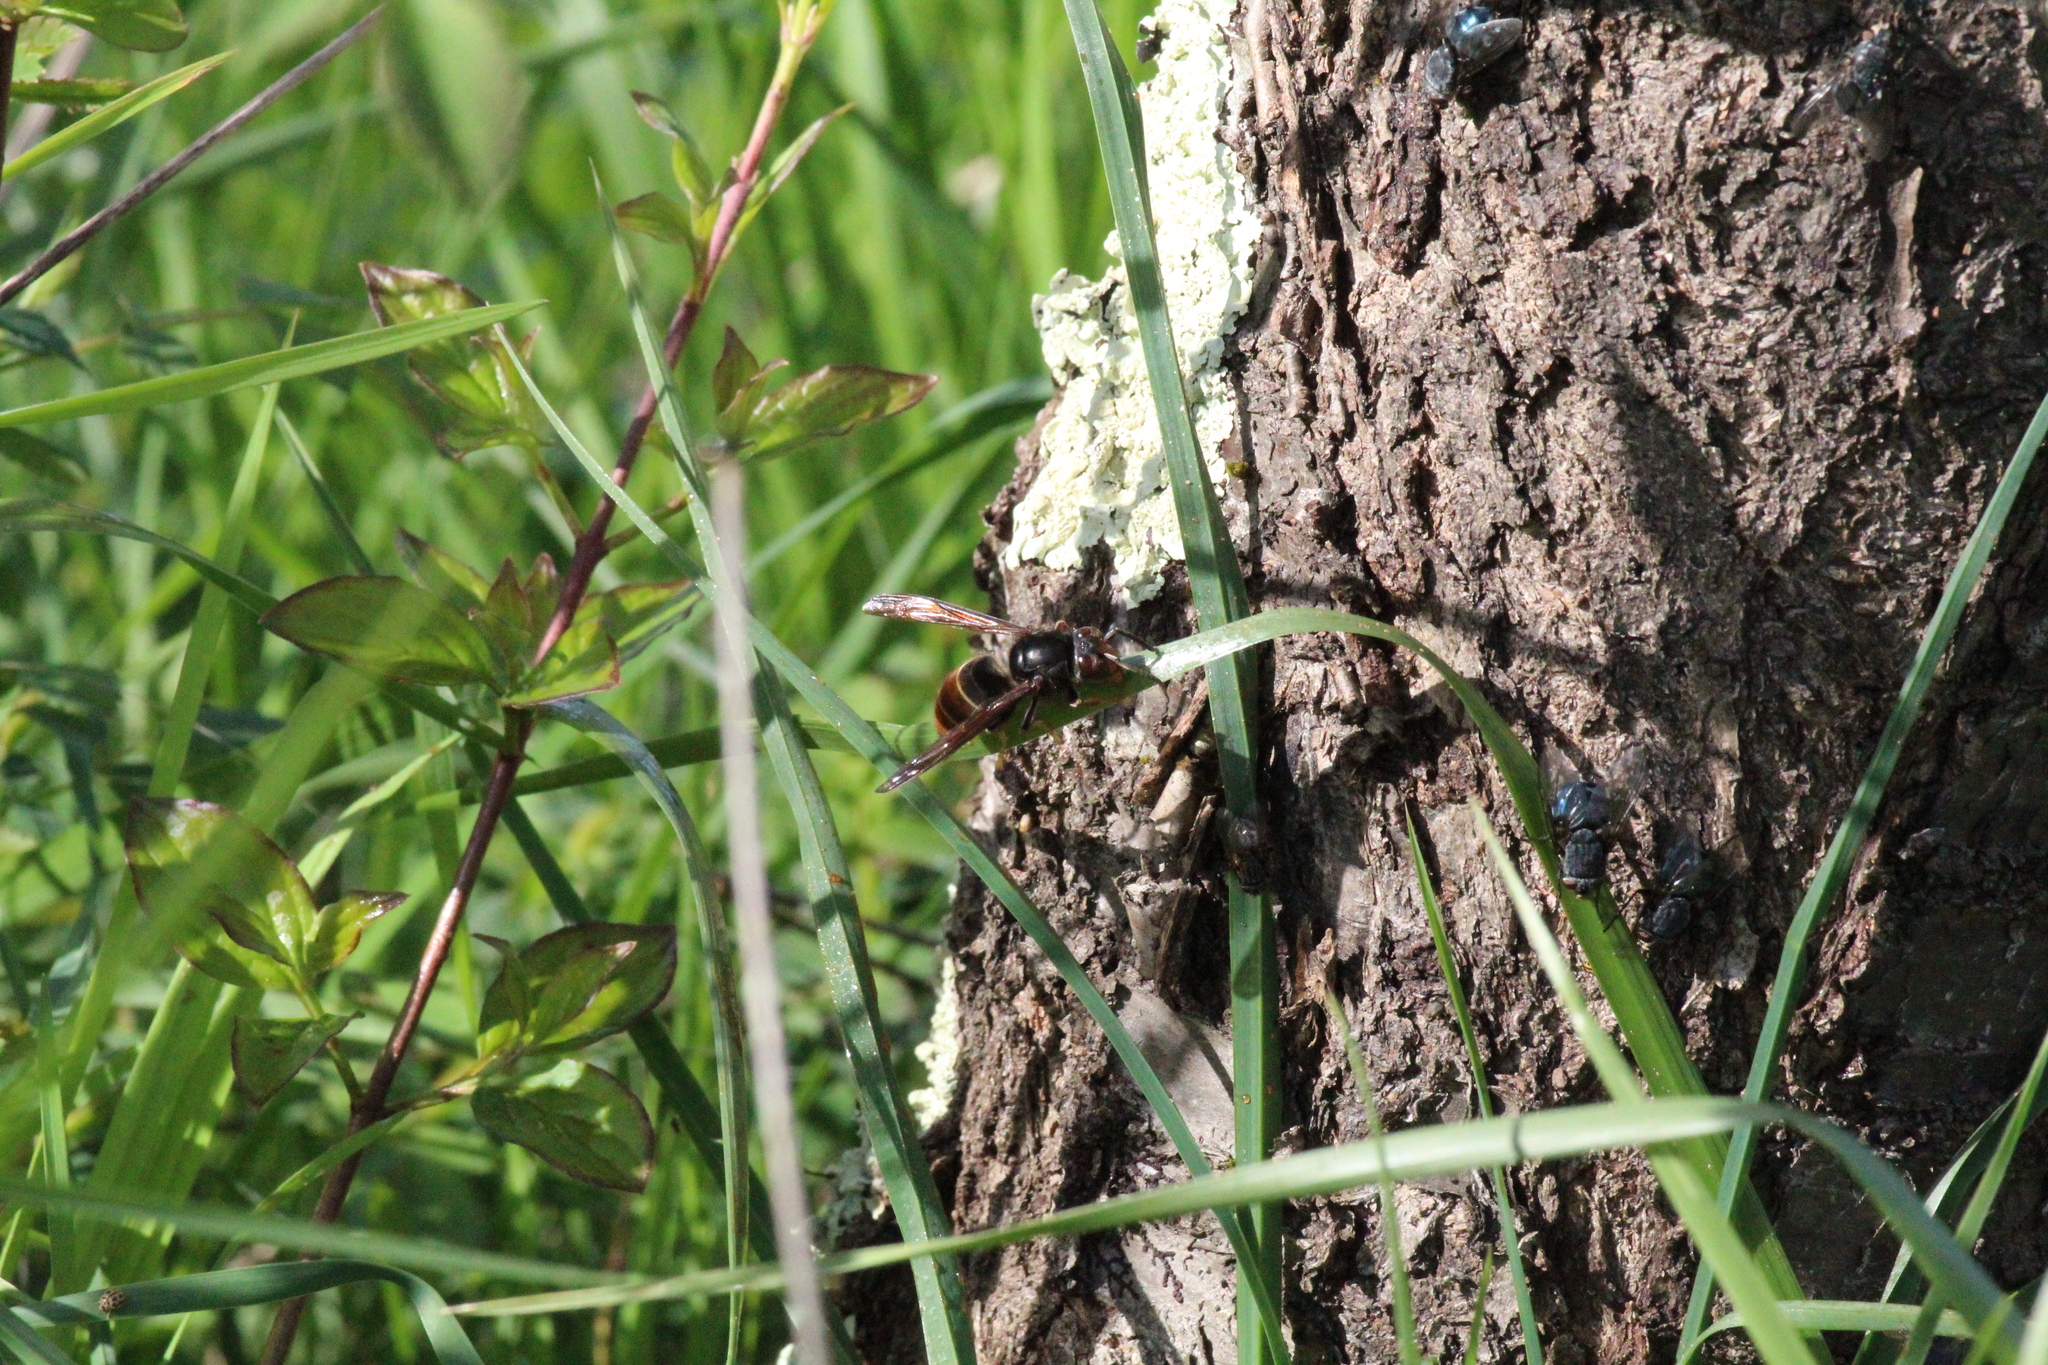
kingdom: Animalia
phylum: Arthropoda
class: Insecta
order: Hymenoptera
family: Vespidae
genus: Vespa
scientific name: Vespa velutina
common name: Asian hornet
